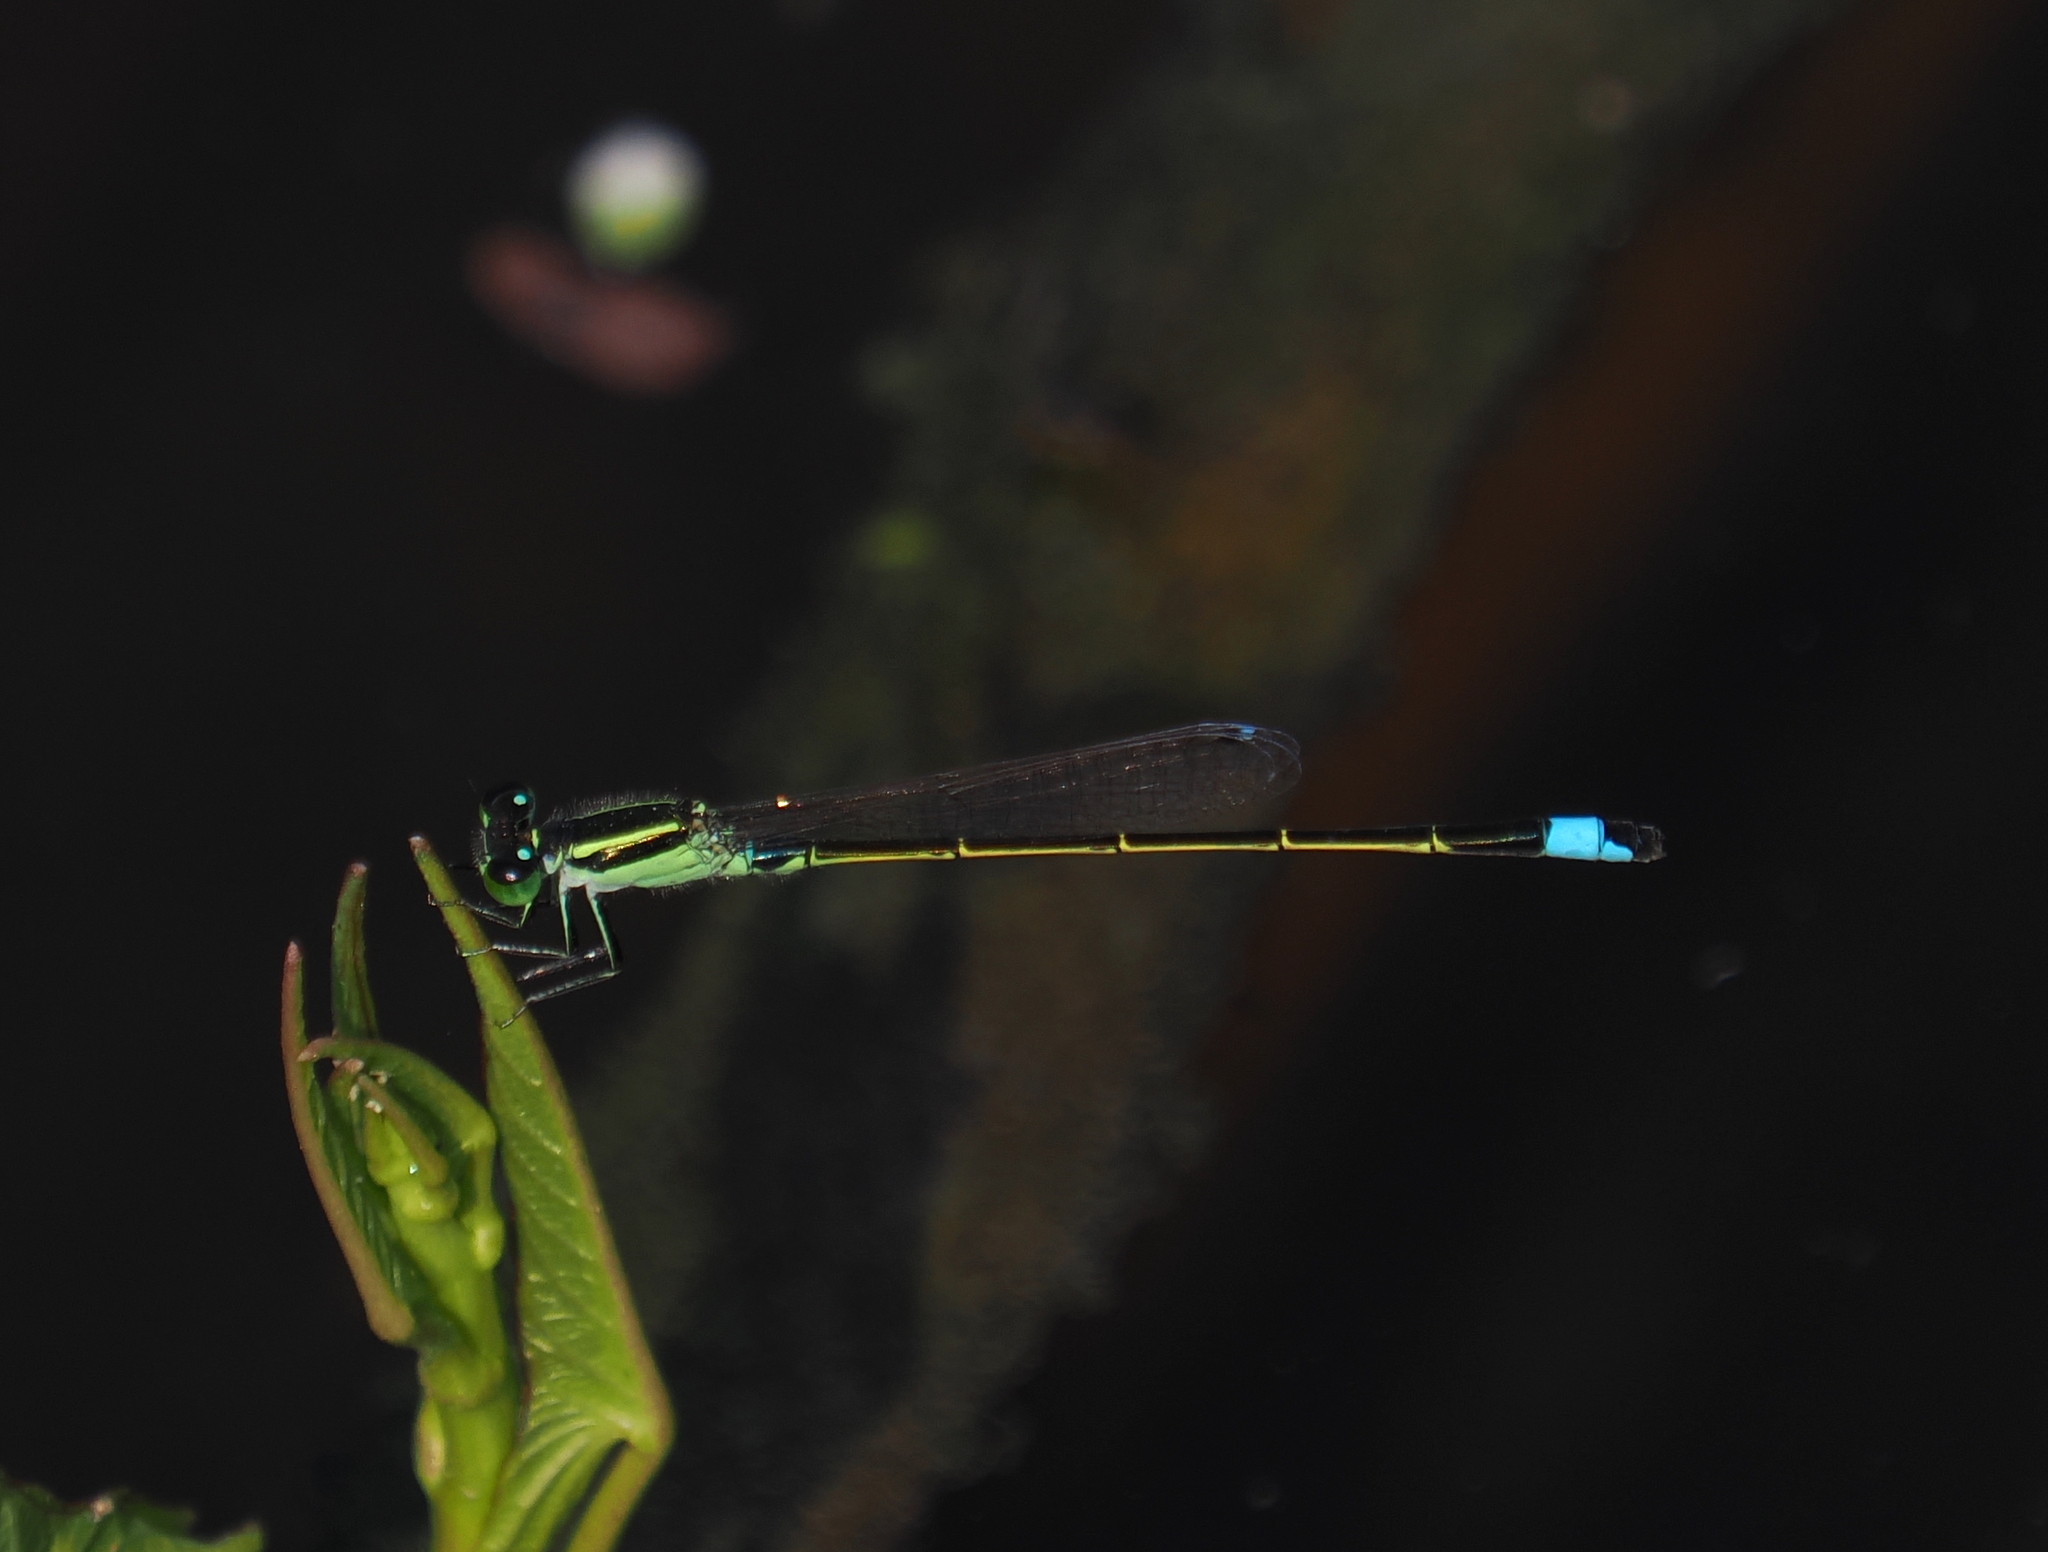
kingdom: Animalia
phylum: Arthropoda
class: Insecta
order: Odonata
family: Coenagrionidae
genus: Ischnura
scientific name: Ischnura senegalensis
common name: Tropical bluetail
